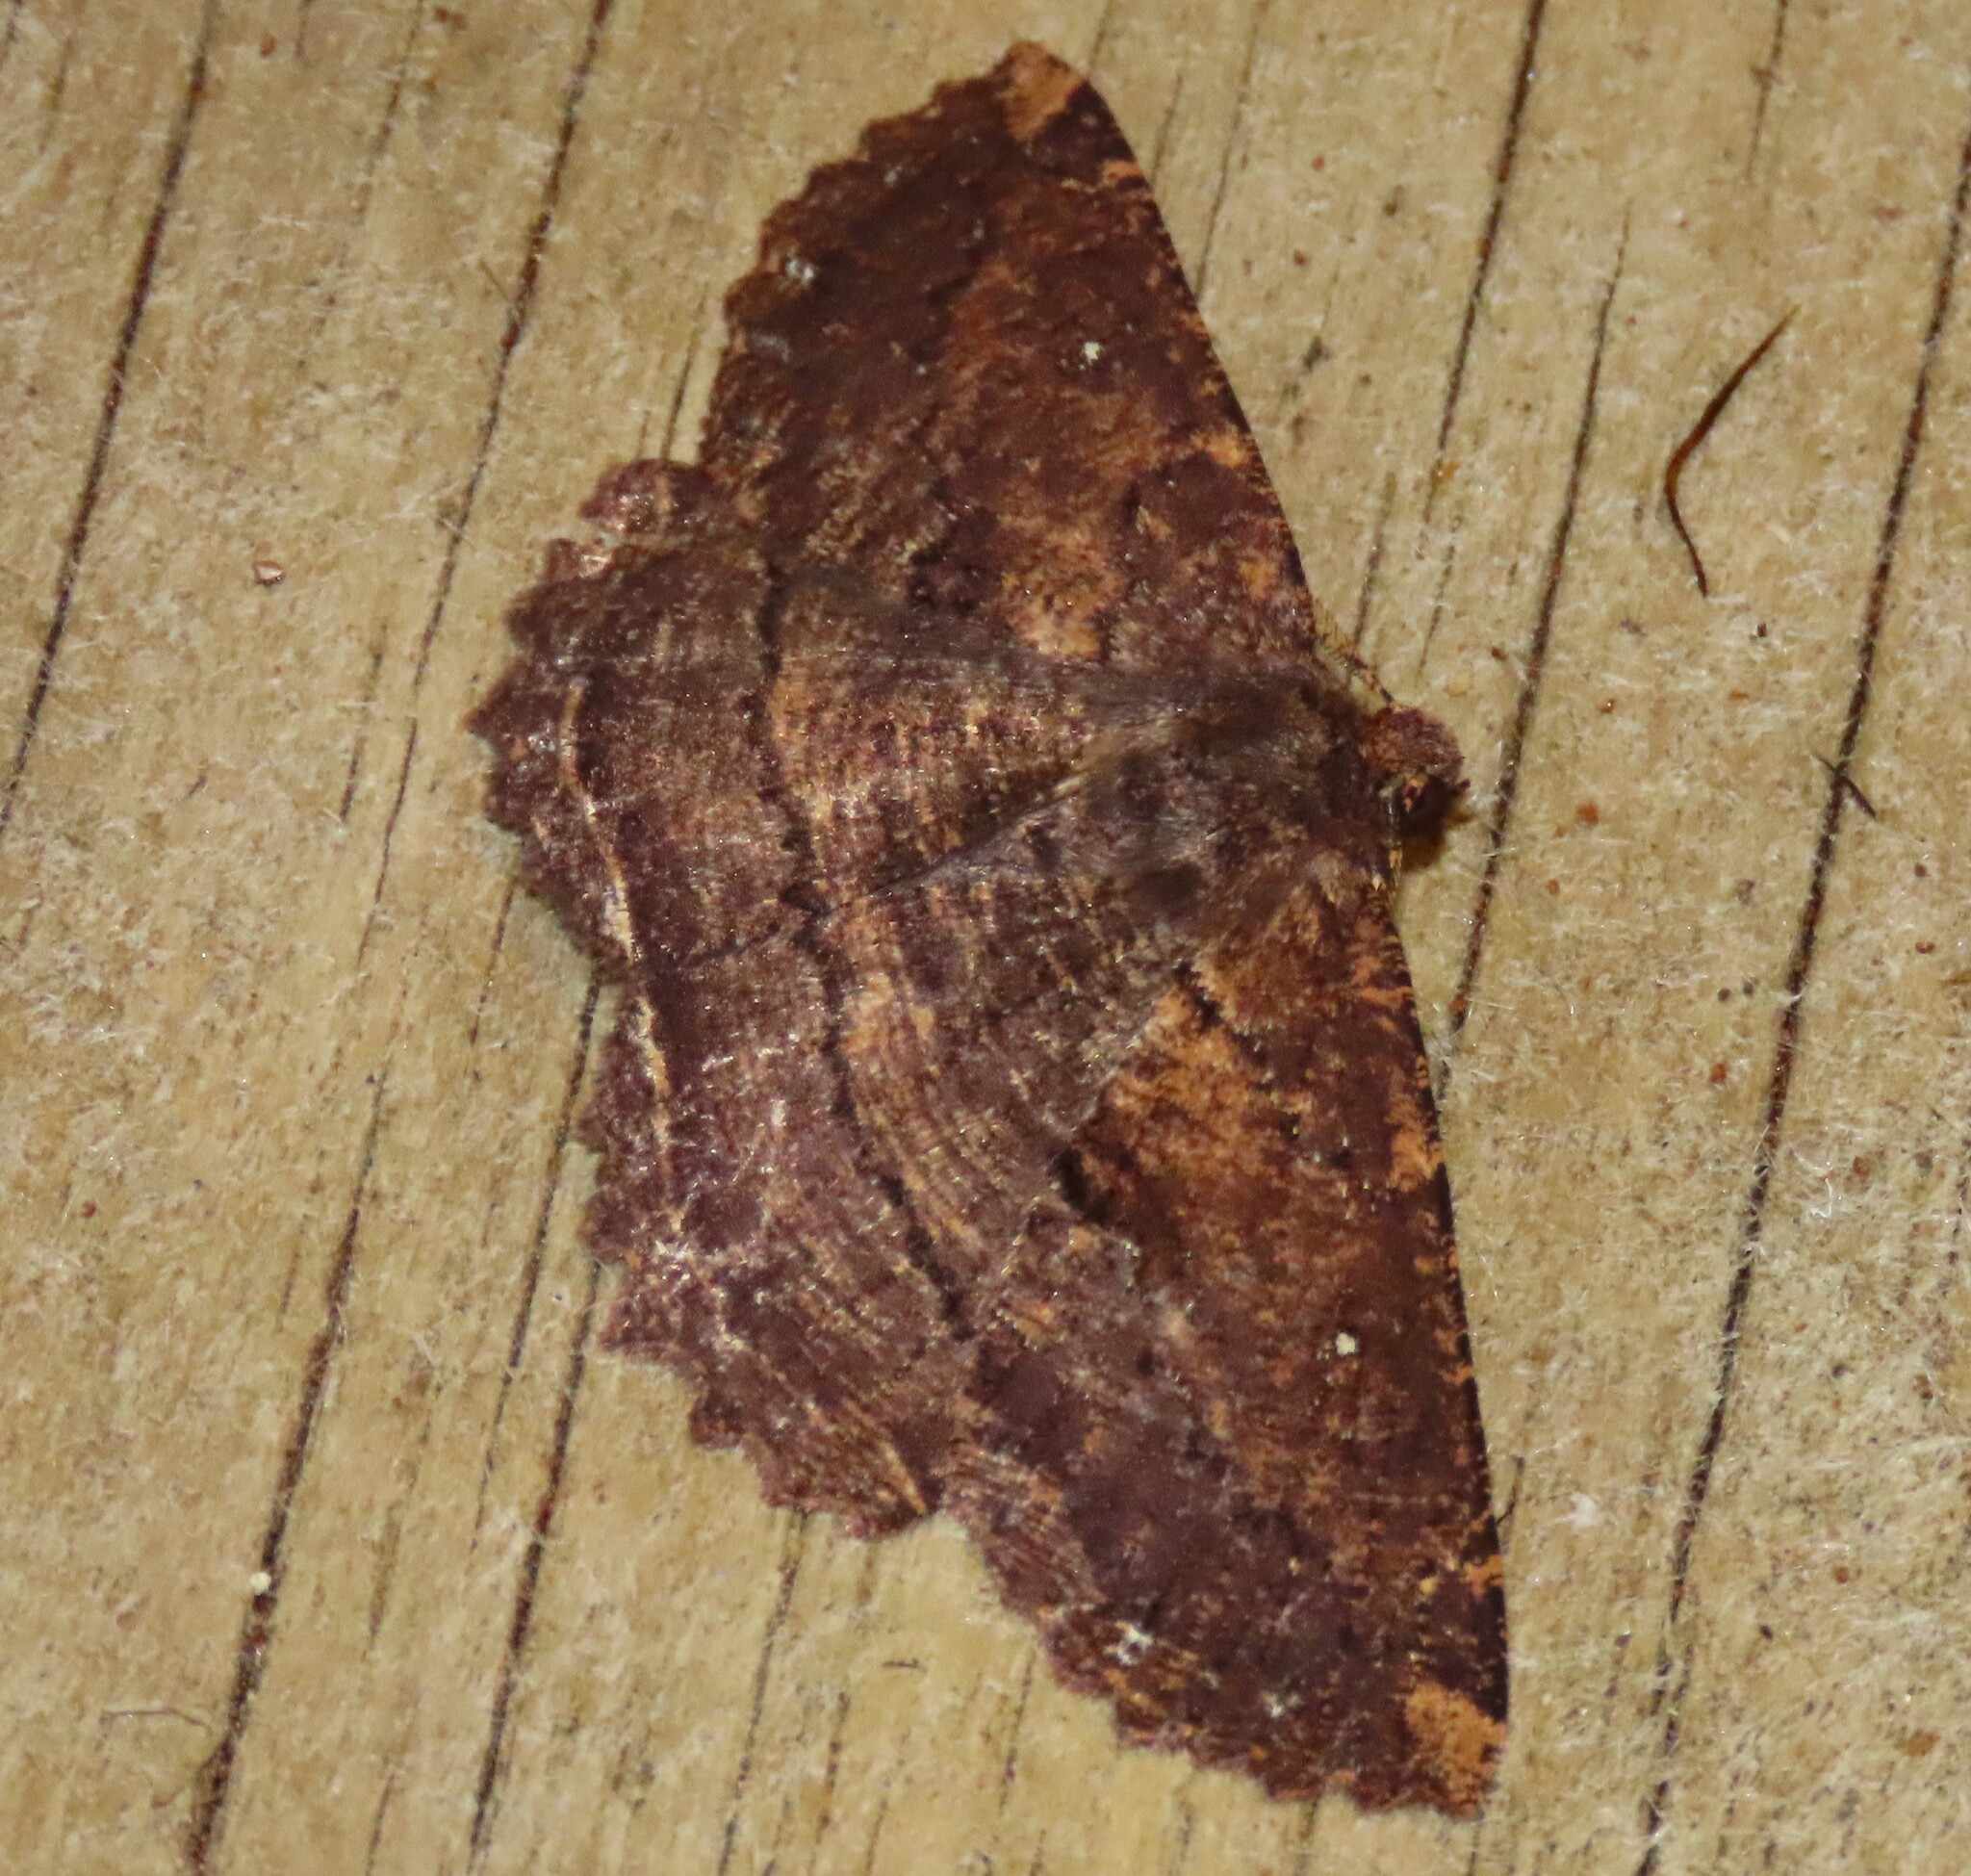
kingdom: Animalia
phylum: Arthropoda
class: Insecta
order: Lepidoptera
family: Geometridae
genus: Gellonia
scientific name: Gellonia dejectaria
